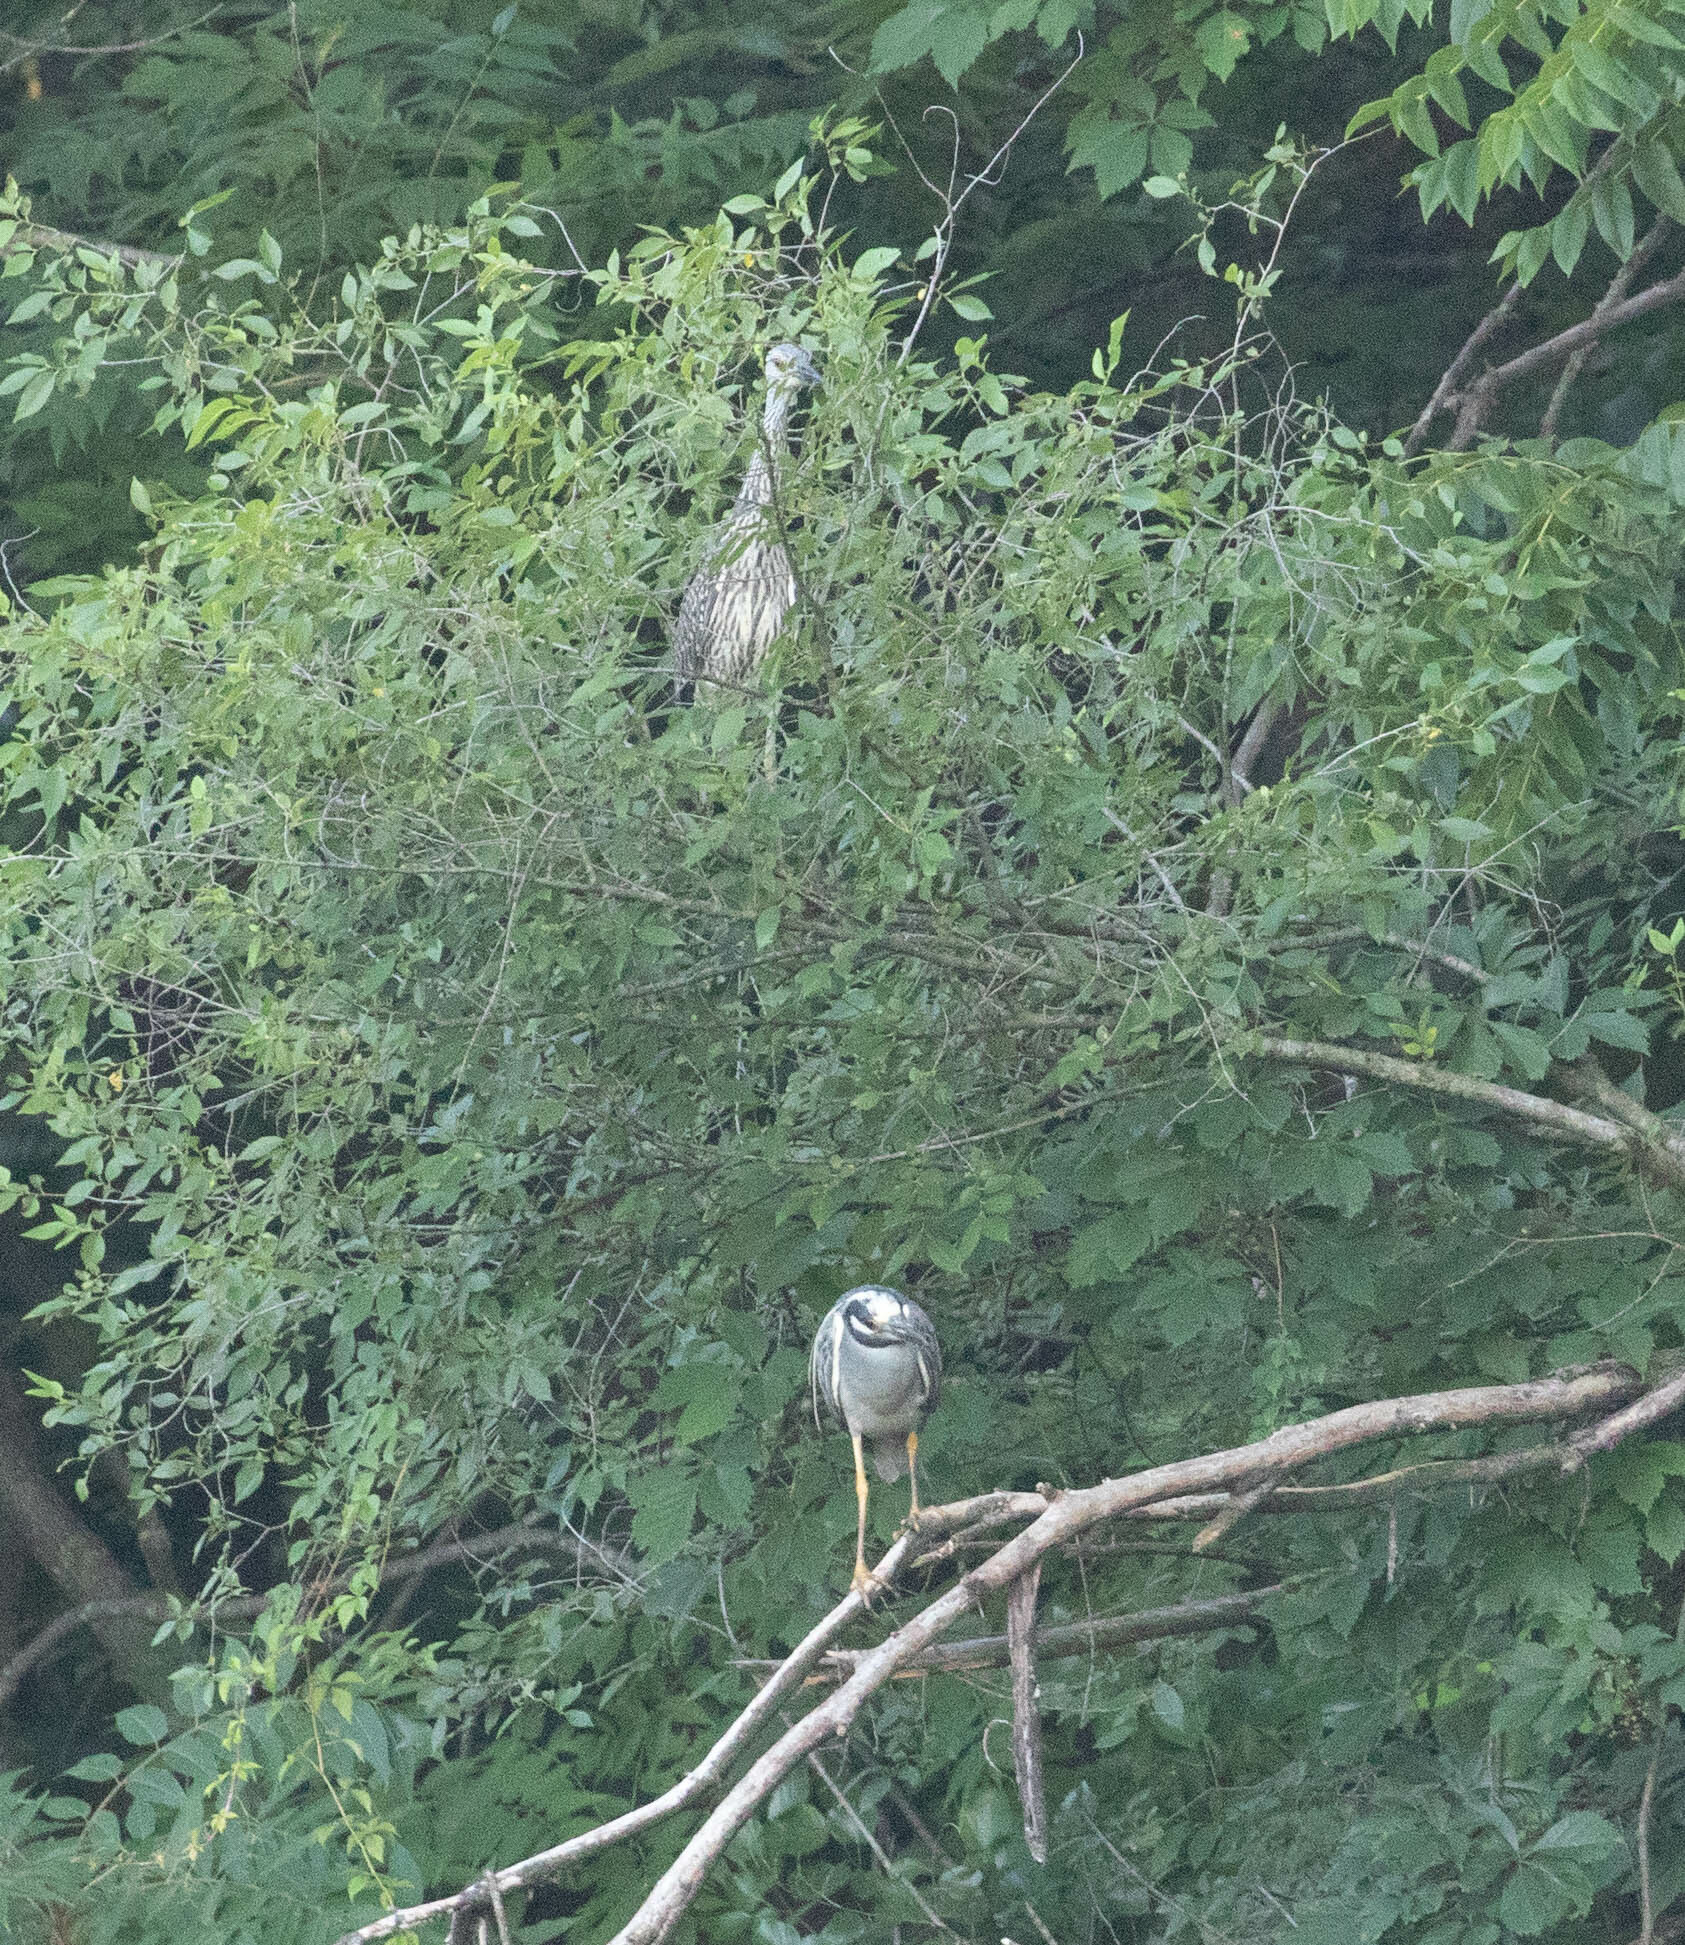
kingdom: Animalia
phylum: Chordata
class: Aves
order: Pelecaniformes
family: Ardeidae
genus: Nyctanassa
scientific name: Nyctanassa violacea
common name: Yellow-crowned night heron
